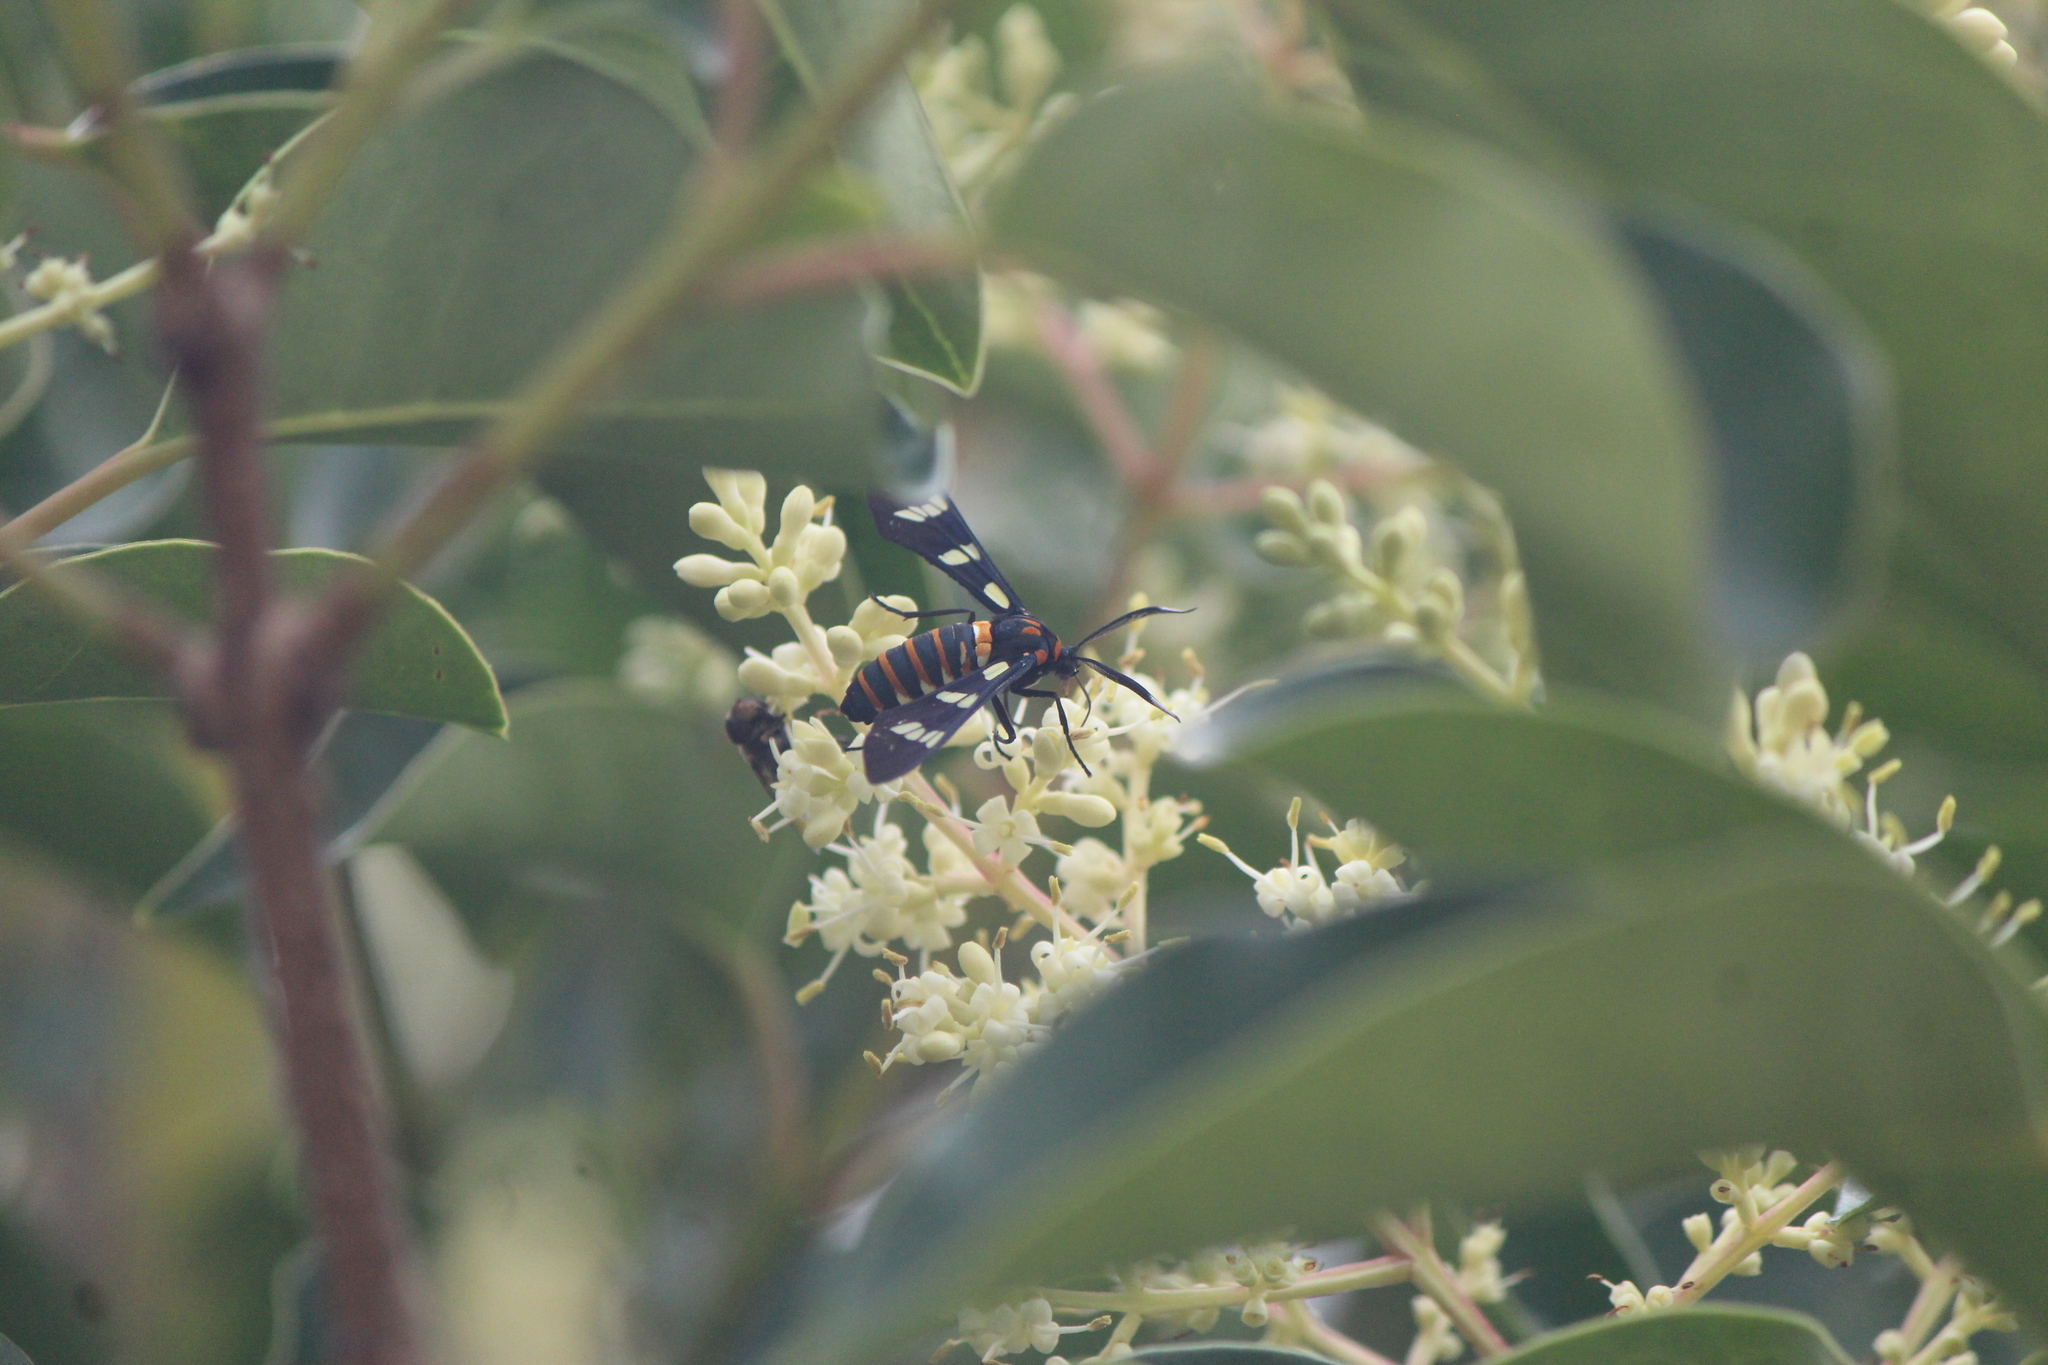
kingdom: Animalia
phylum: Arthropoda
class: Insecta
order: Lepidoptera
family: Erebidae
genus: Syntomeida
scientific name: Syntomeida melanthus
